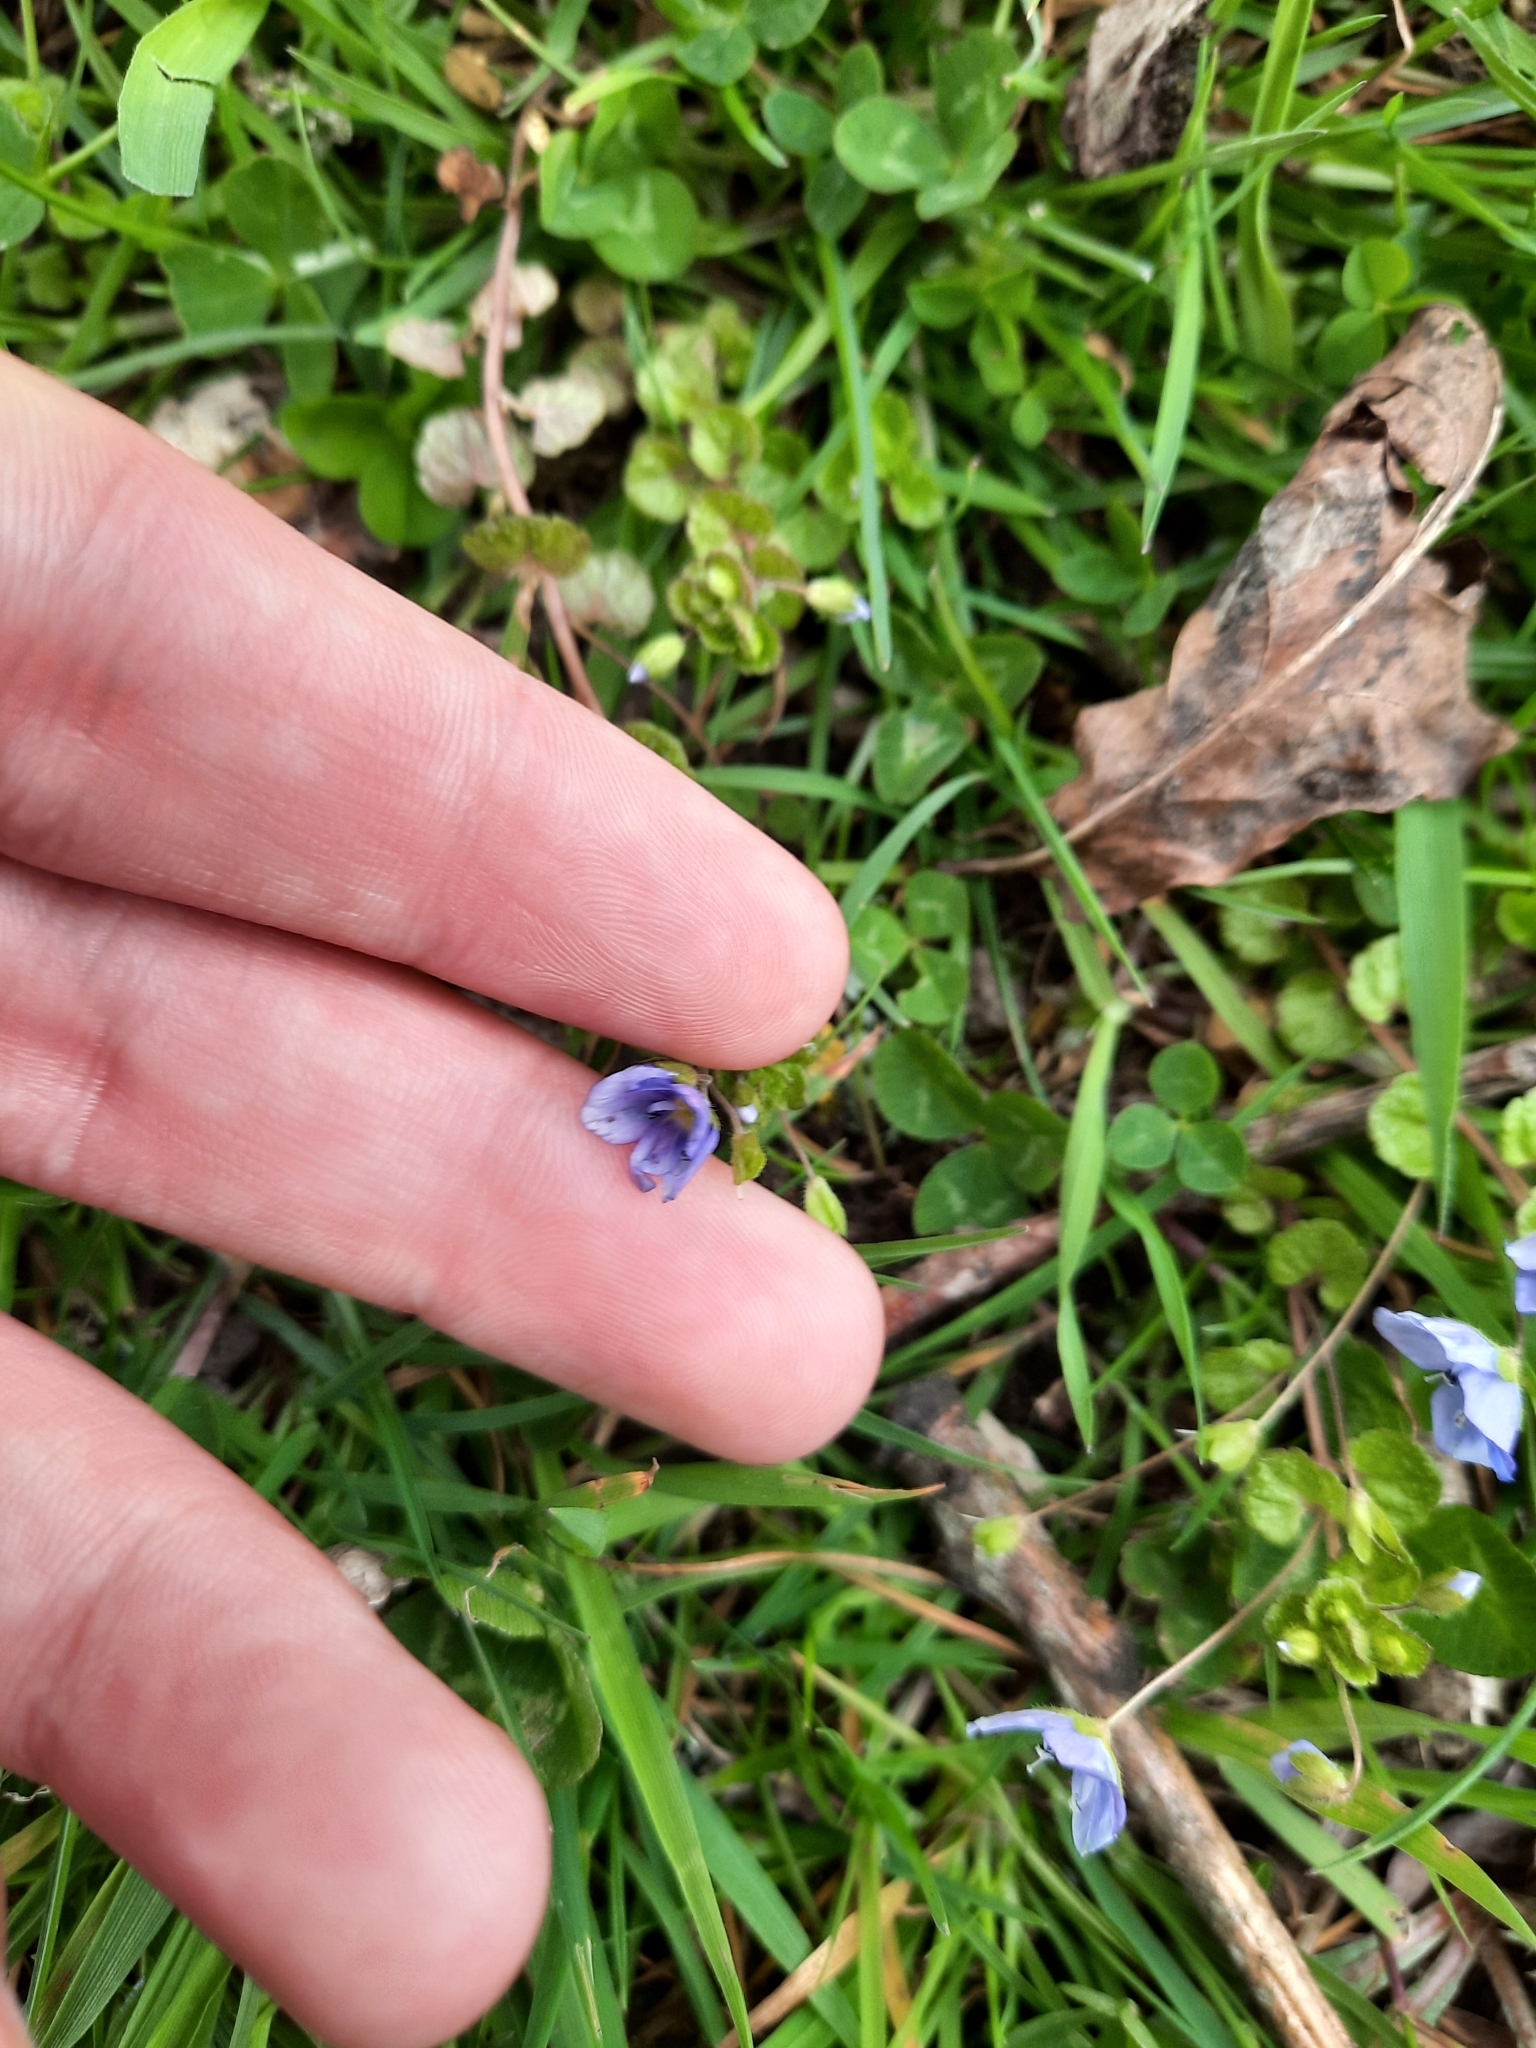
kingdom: Plantae
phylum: Tracheophyta
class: Magnoliopsida
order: Lamiales
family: Plantaginaceae
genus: Veronica
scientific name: Veronica filiformis
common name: Slender speedwell
